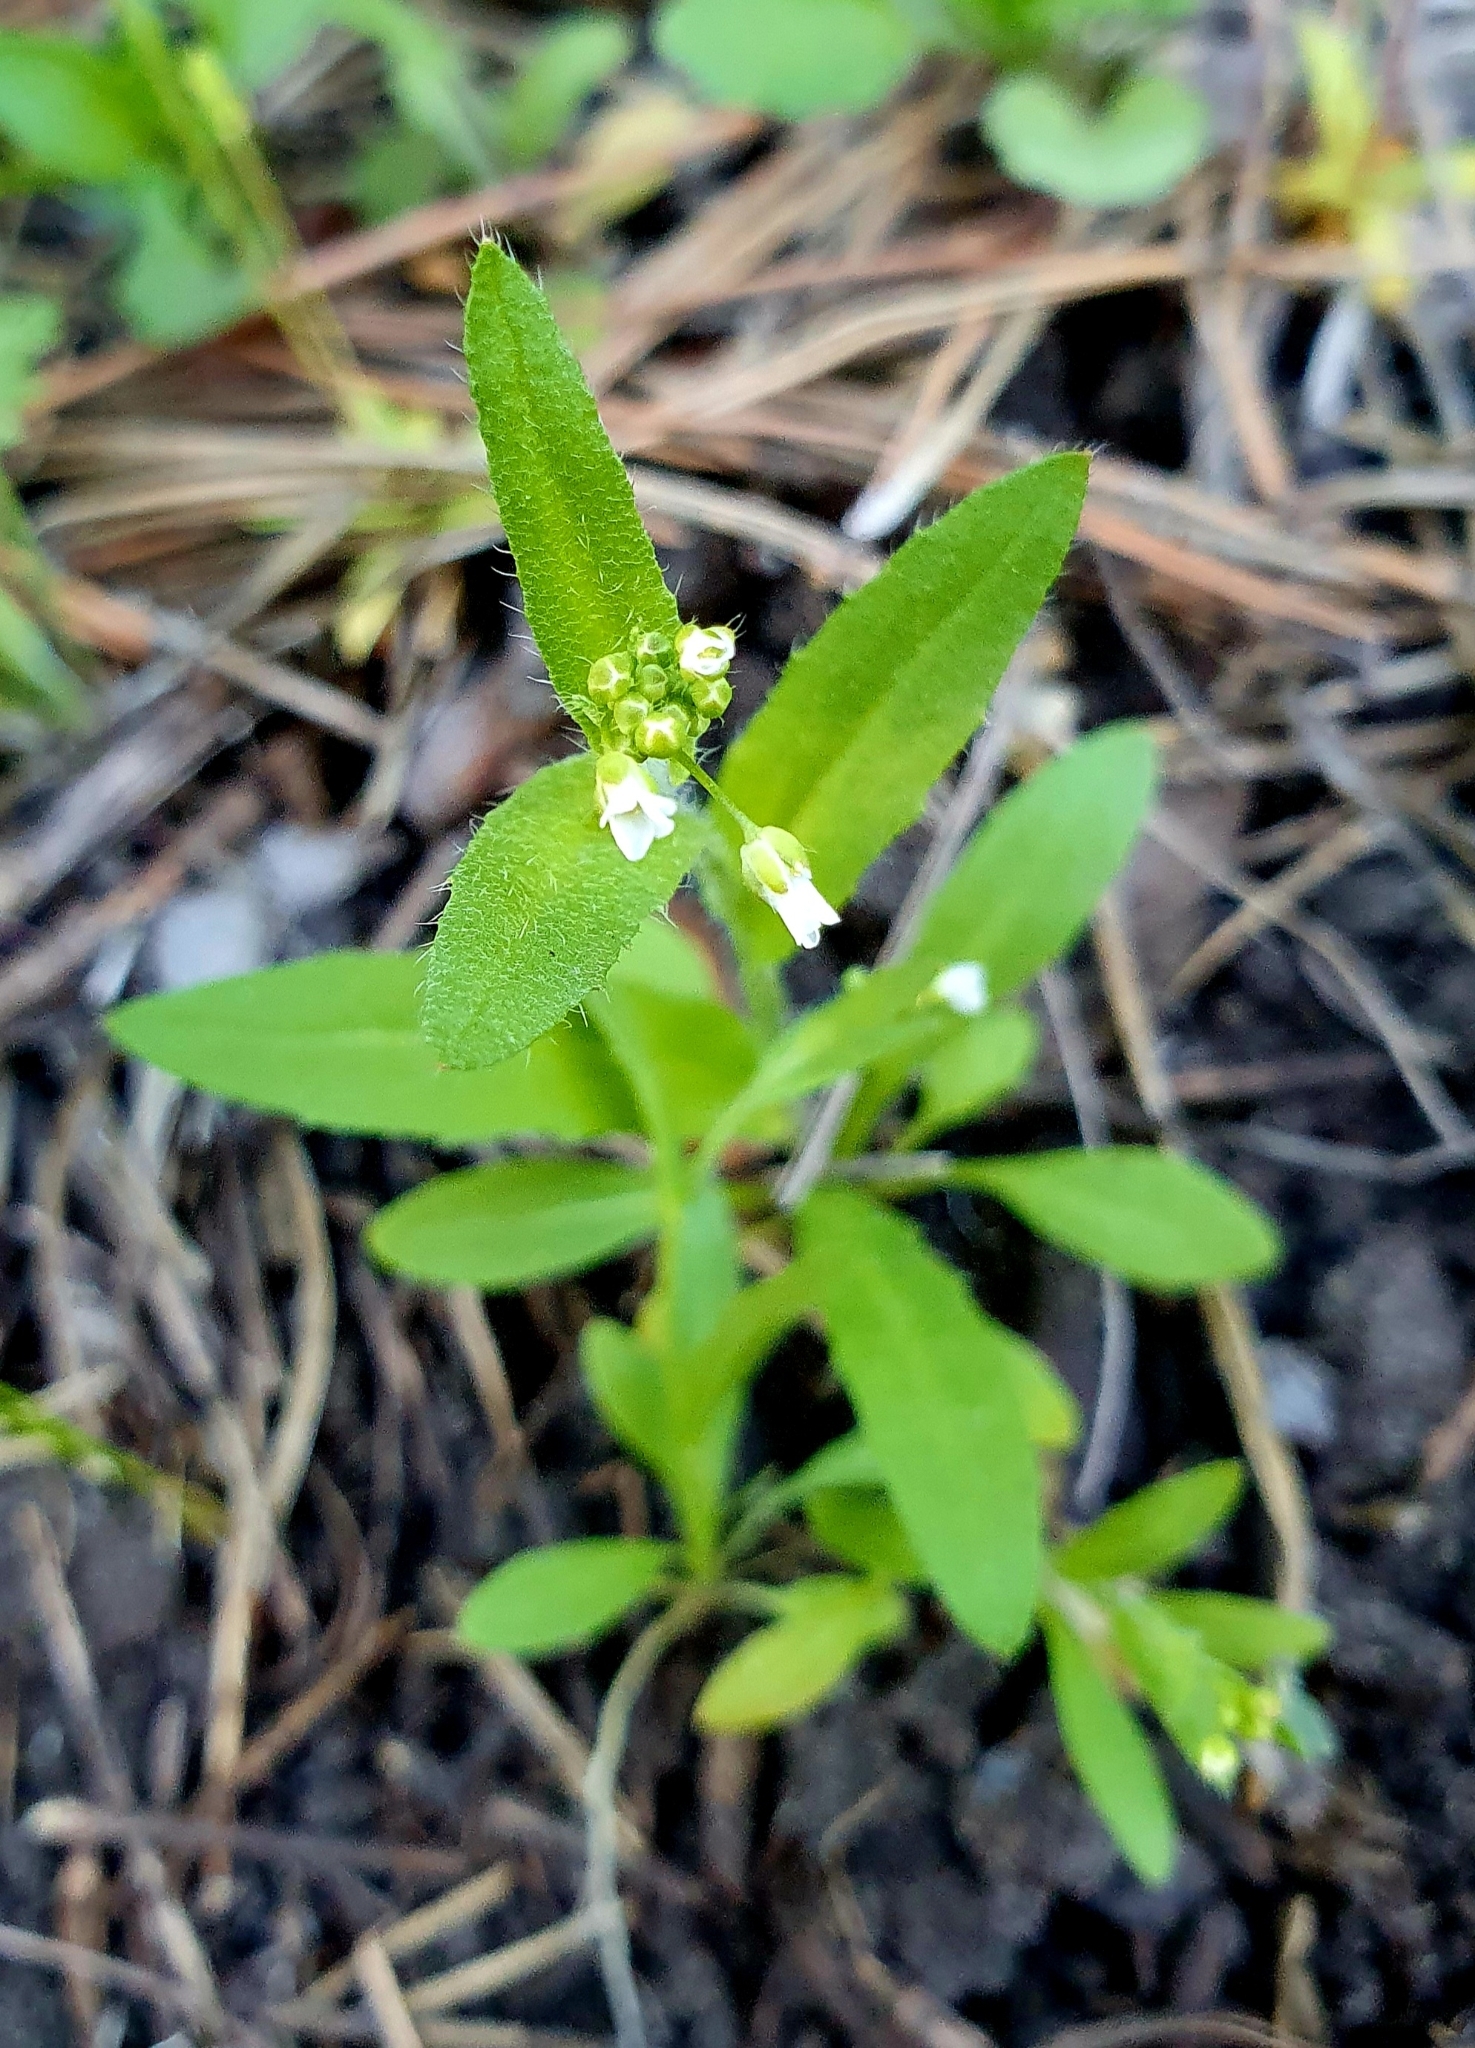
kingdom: Plantae
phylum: Tracheophyta
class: Magnoliopsida
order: Brassicales
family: Brassicaceae
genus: Capsella
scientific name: Capsella bursa-pastoris
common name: Shepherd's purse
